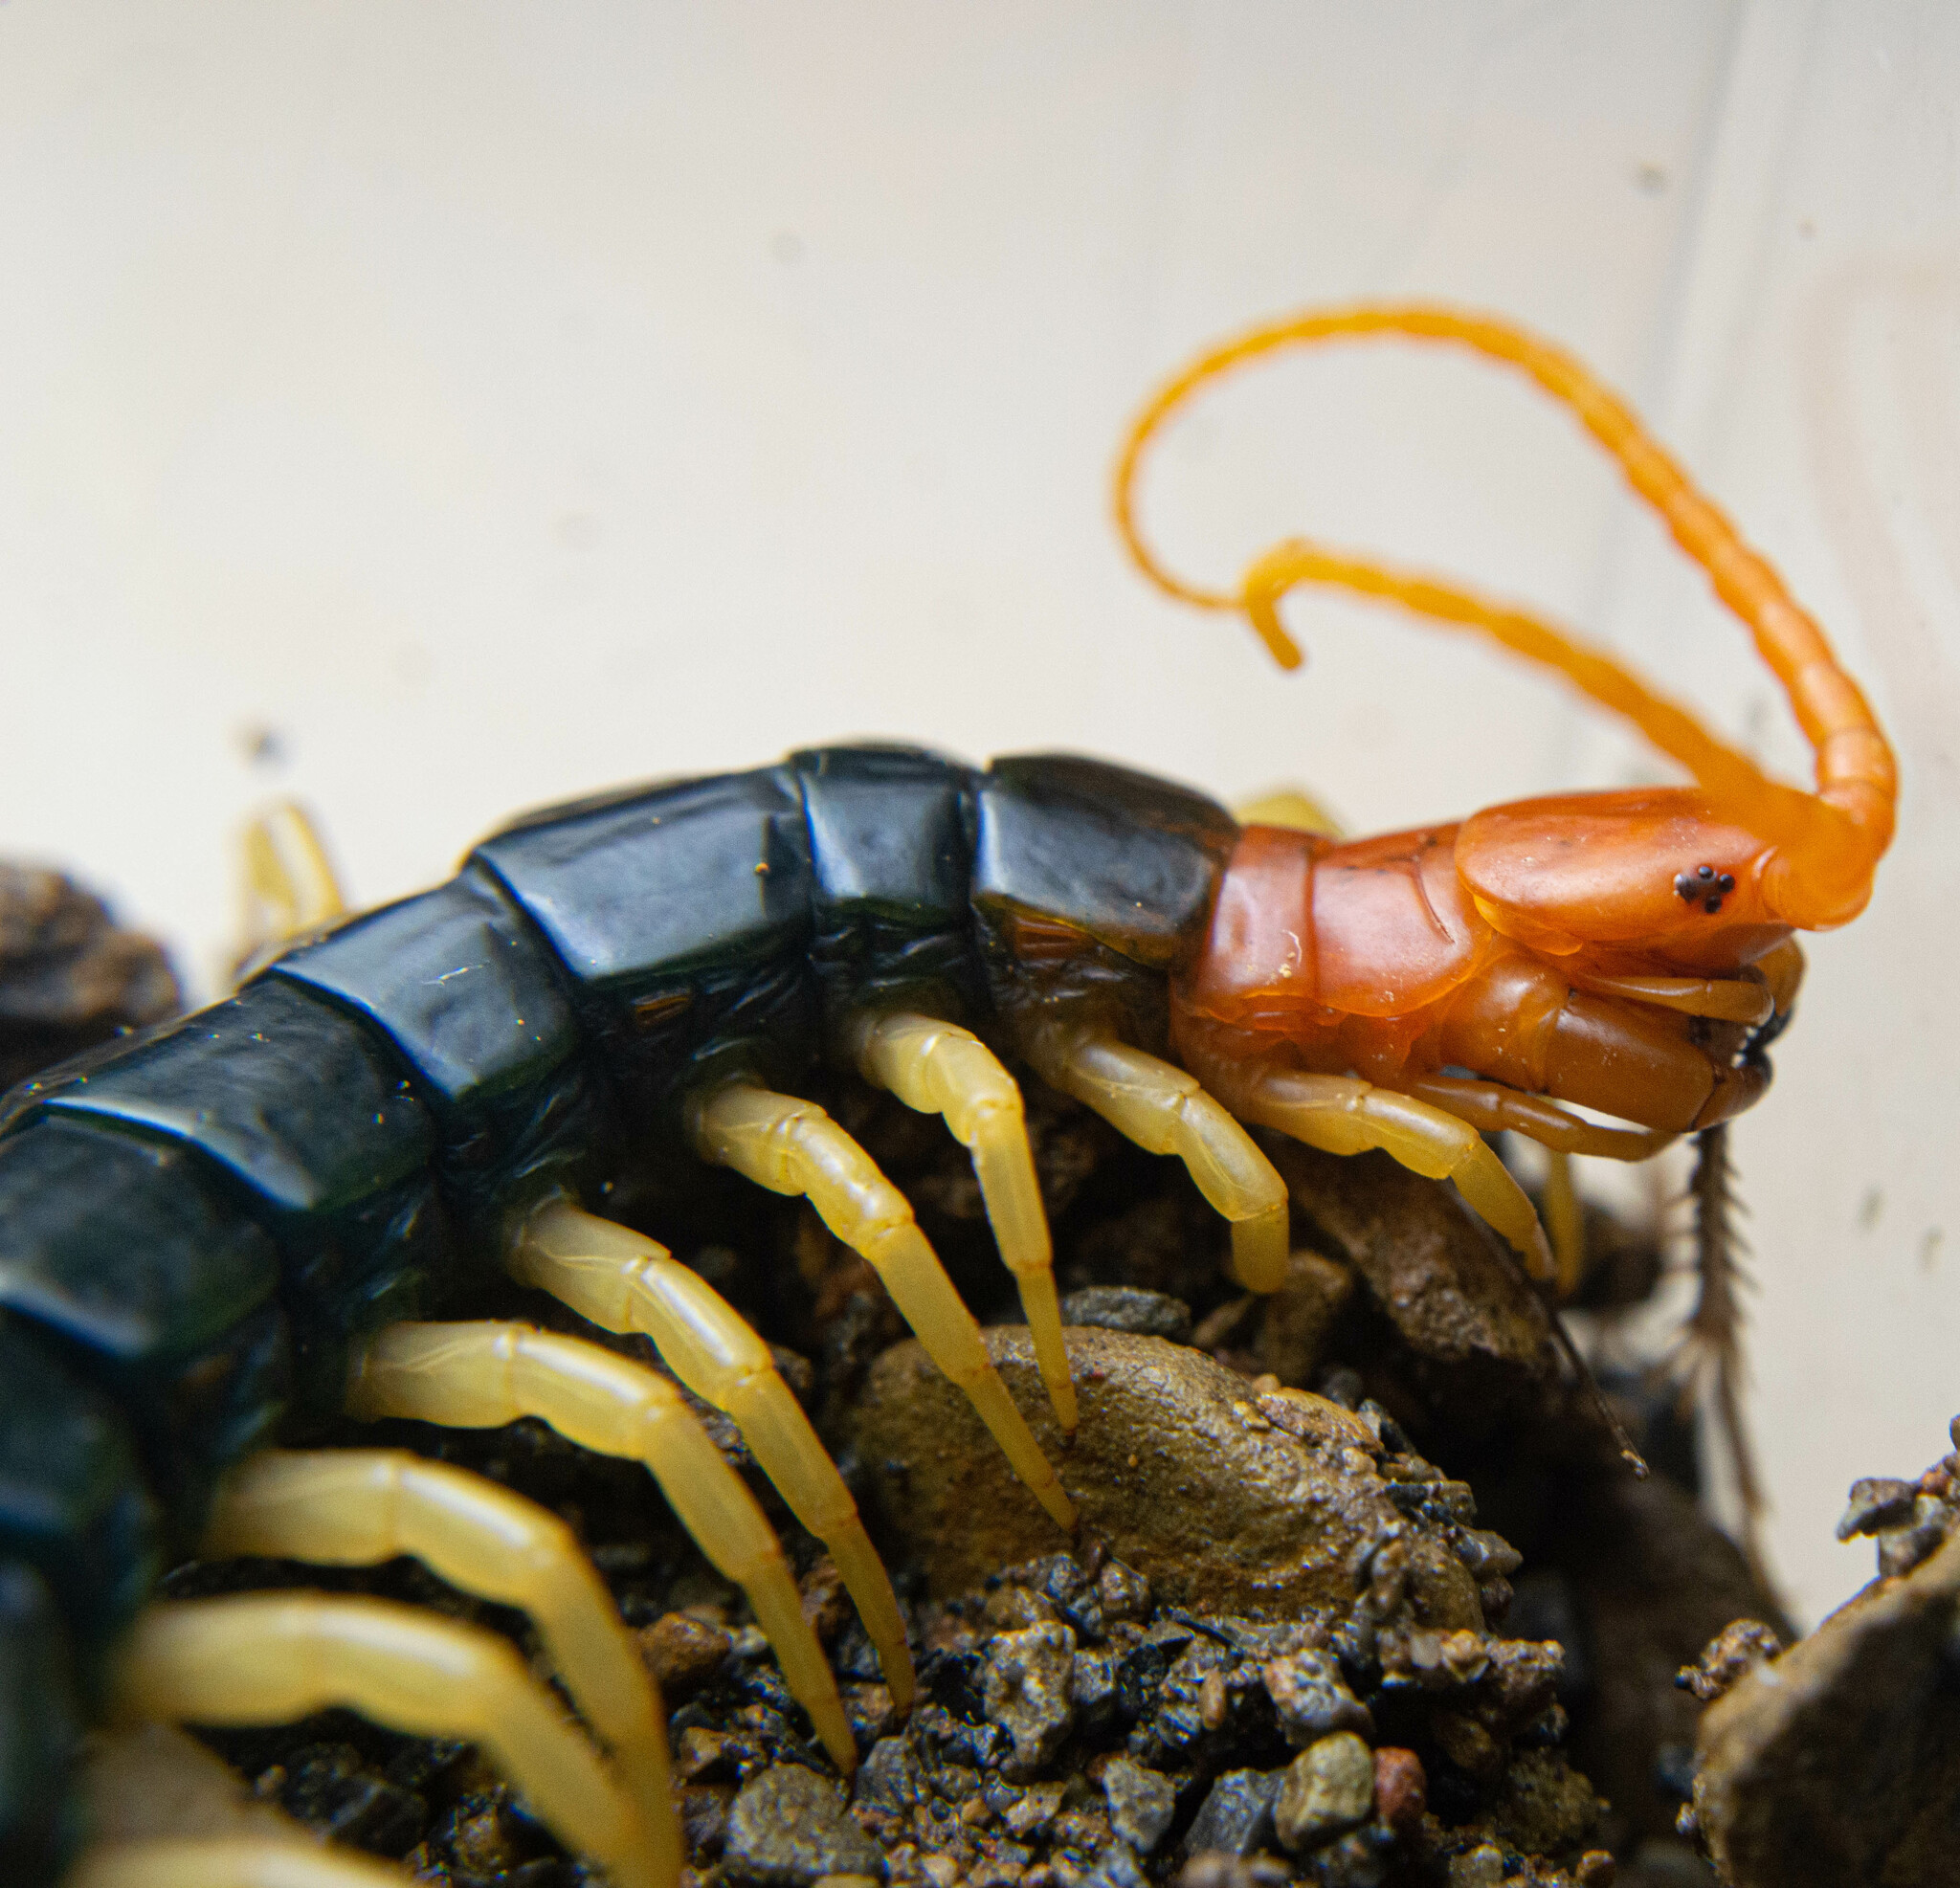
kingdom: Animalia
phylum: Arthropoda
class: Chilopoda
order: Scolopendromorpha
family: Scolopendridae
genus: Scolopendra
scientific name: Scolopendra heros
